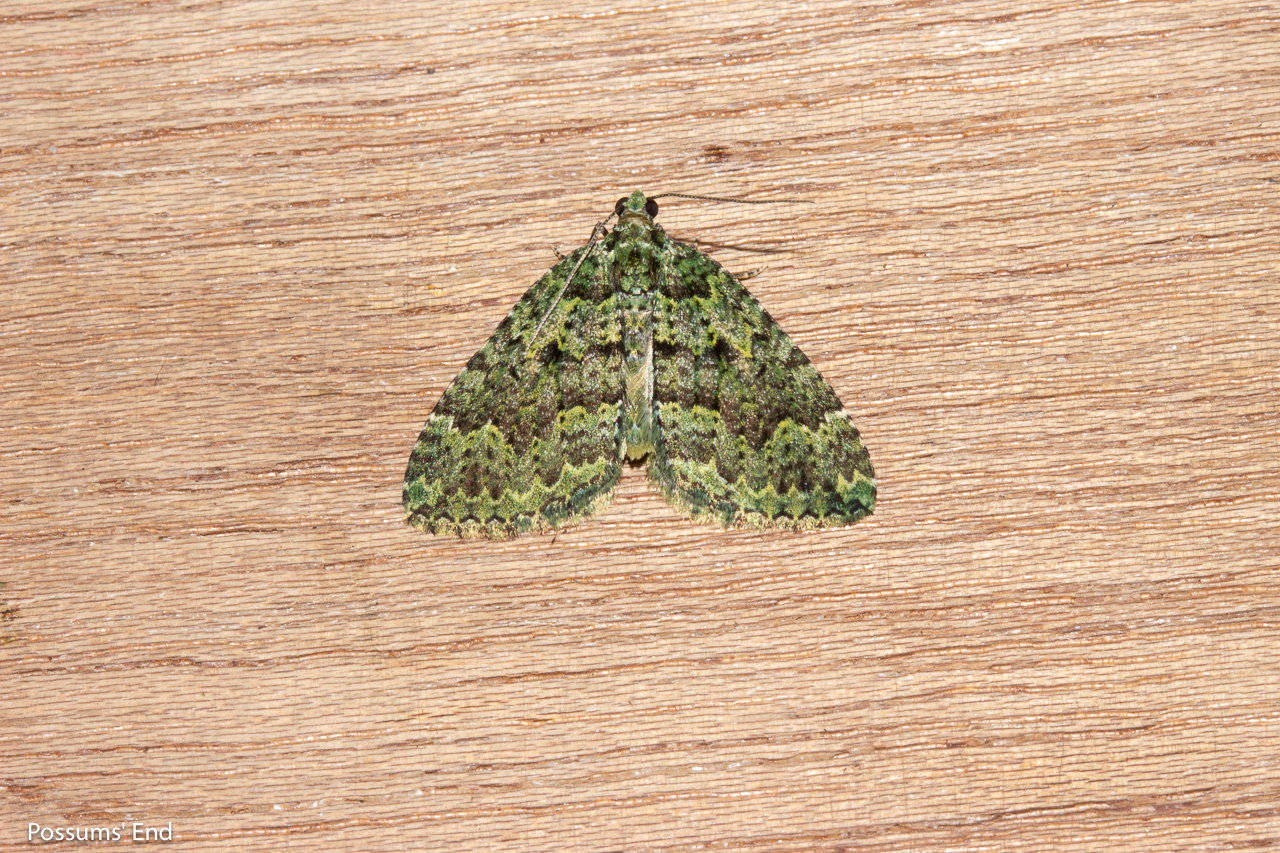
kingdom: Animalia
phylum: Arthropoda
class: Insecta
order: Lepidoptera
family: Geometridae
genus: Austrocidaria
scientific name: Austrocidaria callichlora
